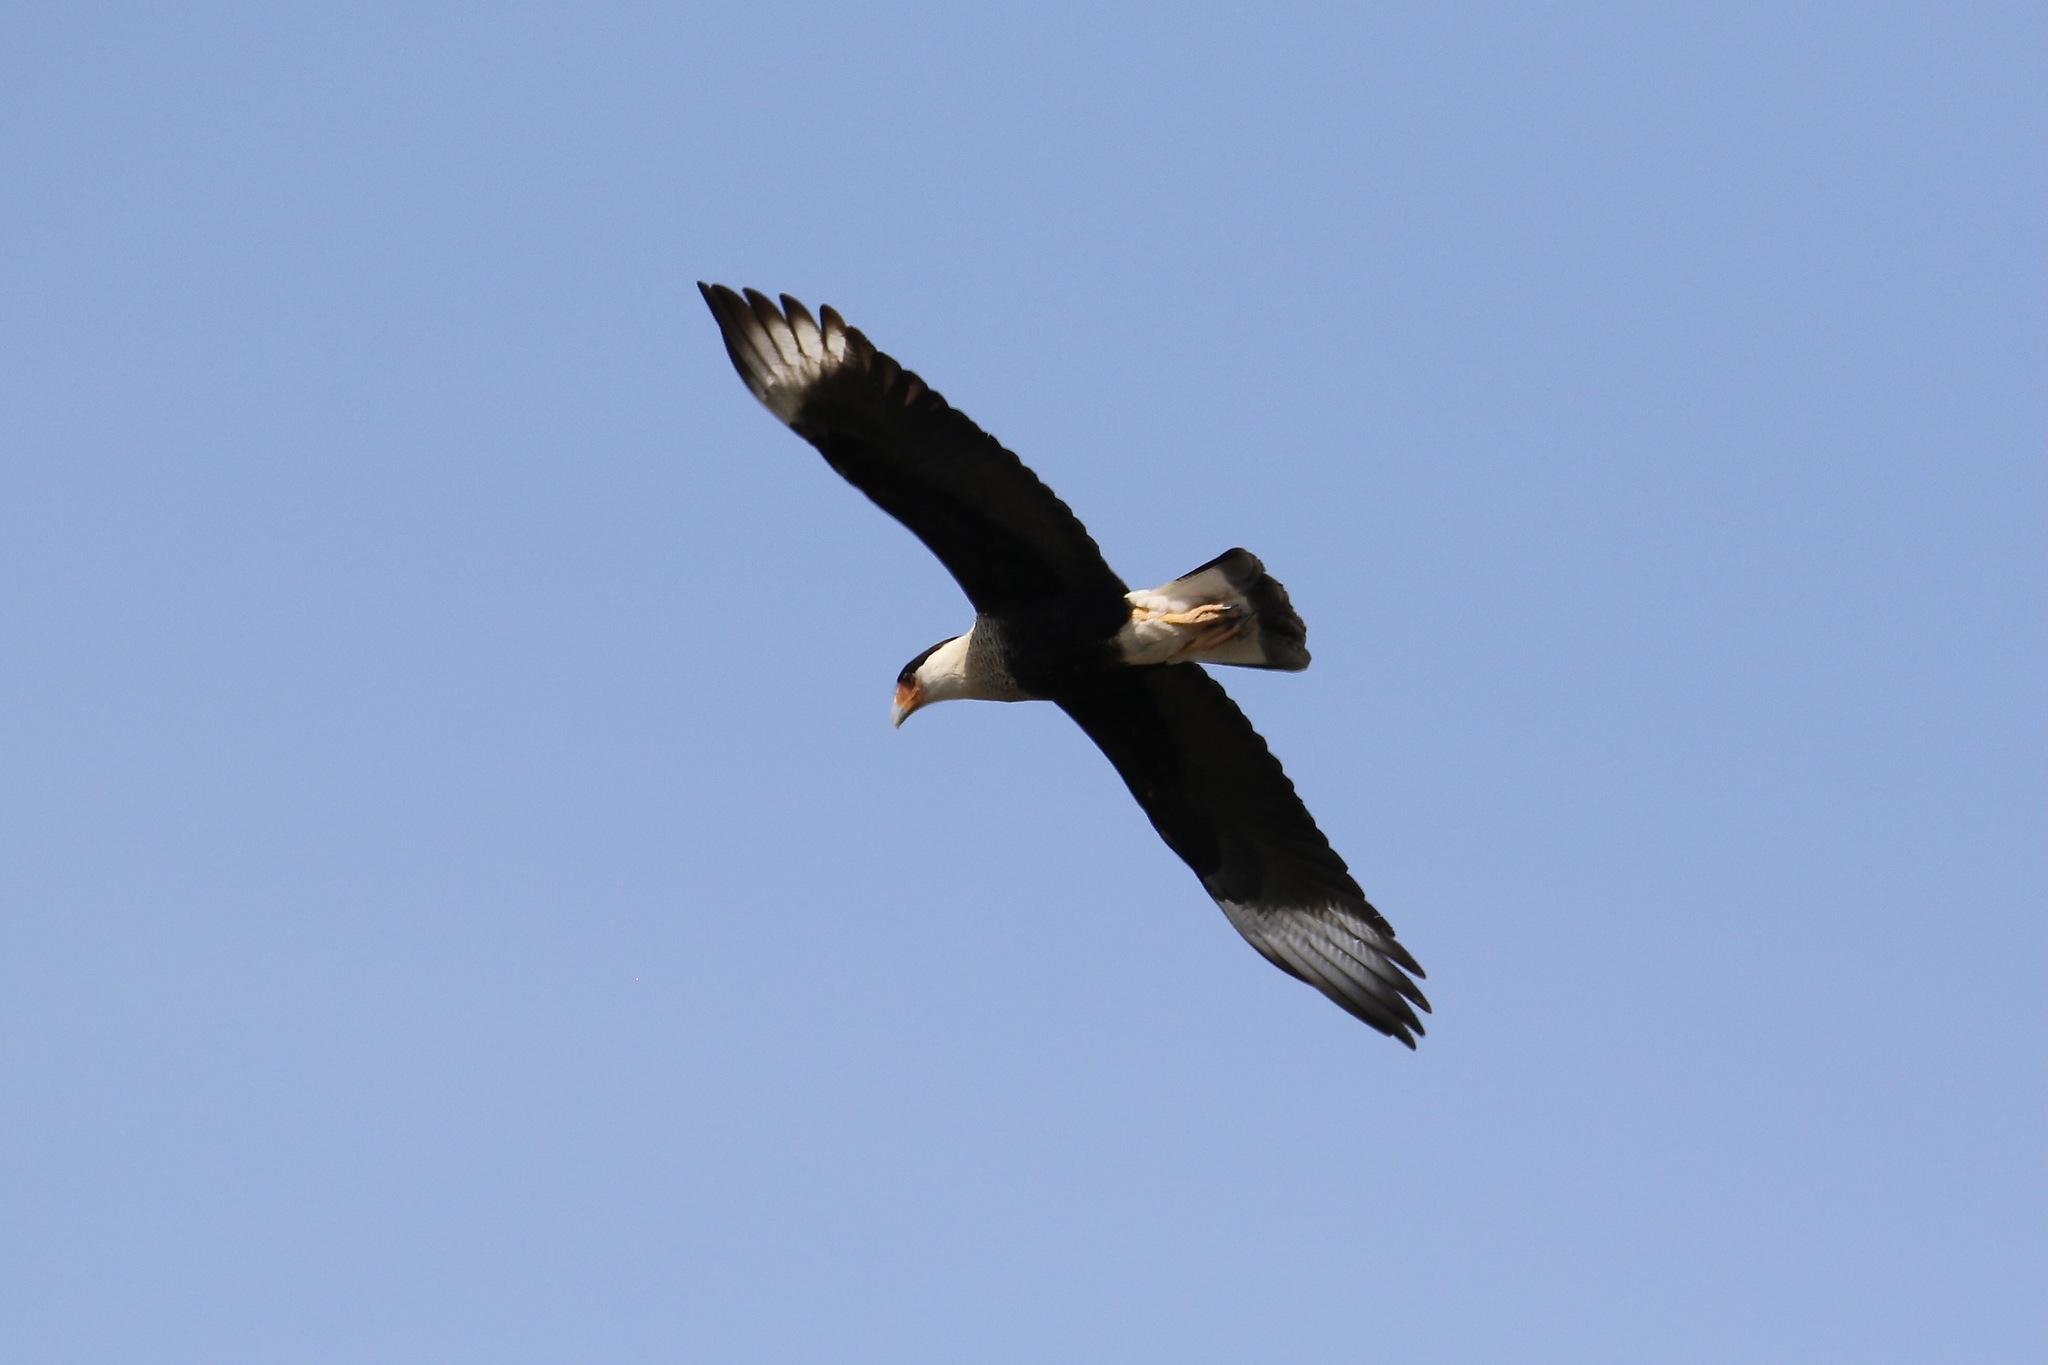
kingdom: Animalia
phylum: Chordata
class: Aves
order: Falconiformes
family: Falconidae
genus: Caracara
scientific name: Caracara plancus
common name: Southern caracara
